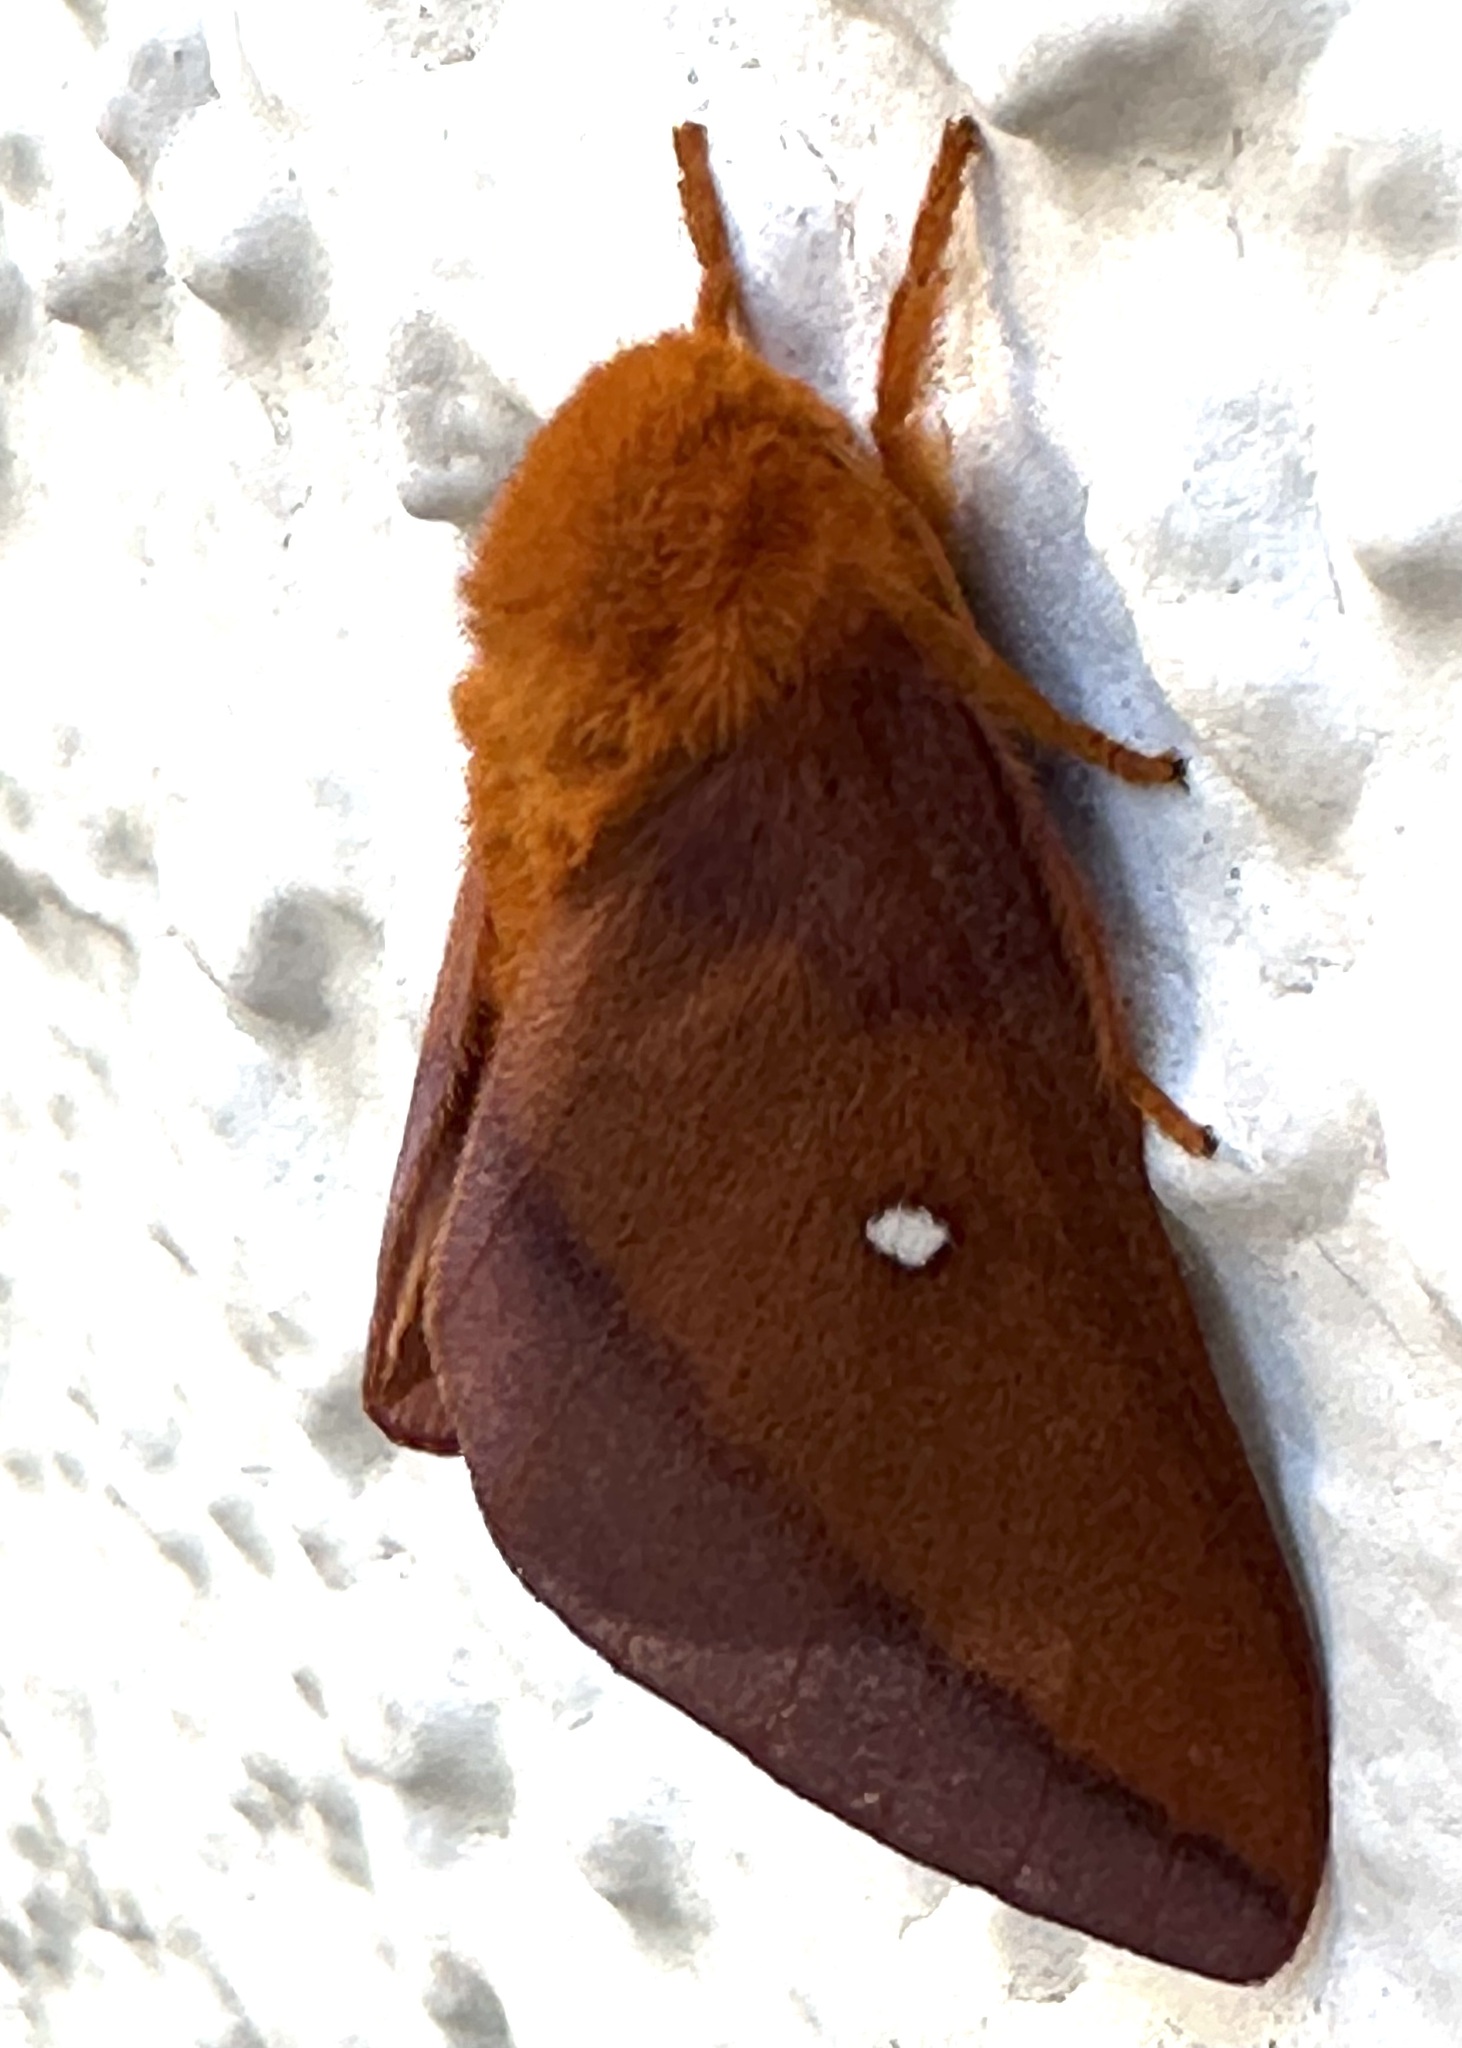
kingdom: Animalia
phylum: Arthropoda
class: Insecta
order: Lepidoptera
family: Saturniidae
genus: Anisota
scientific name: Anisota virginiensis
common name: Pink striped oakworm moth
